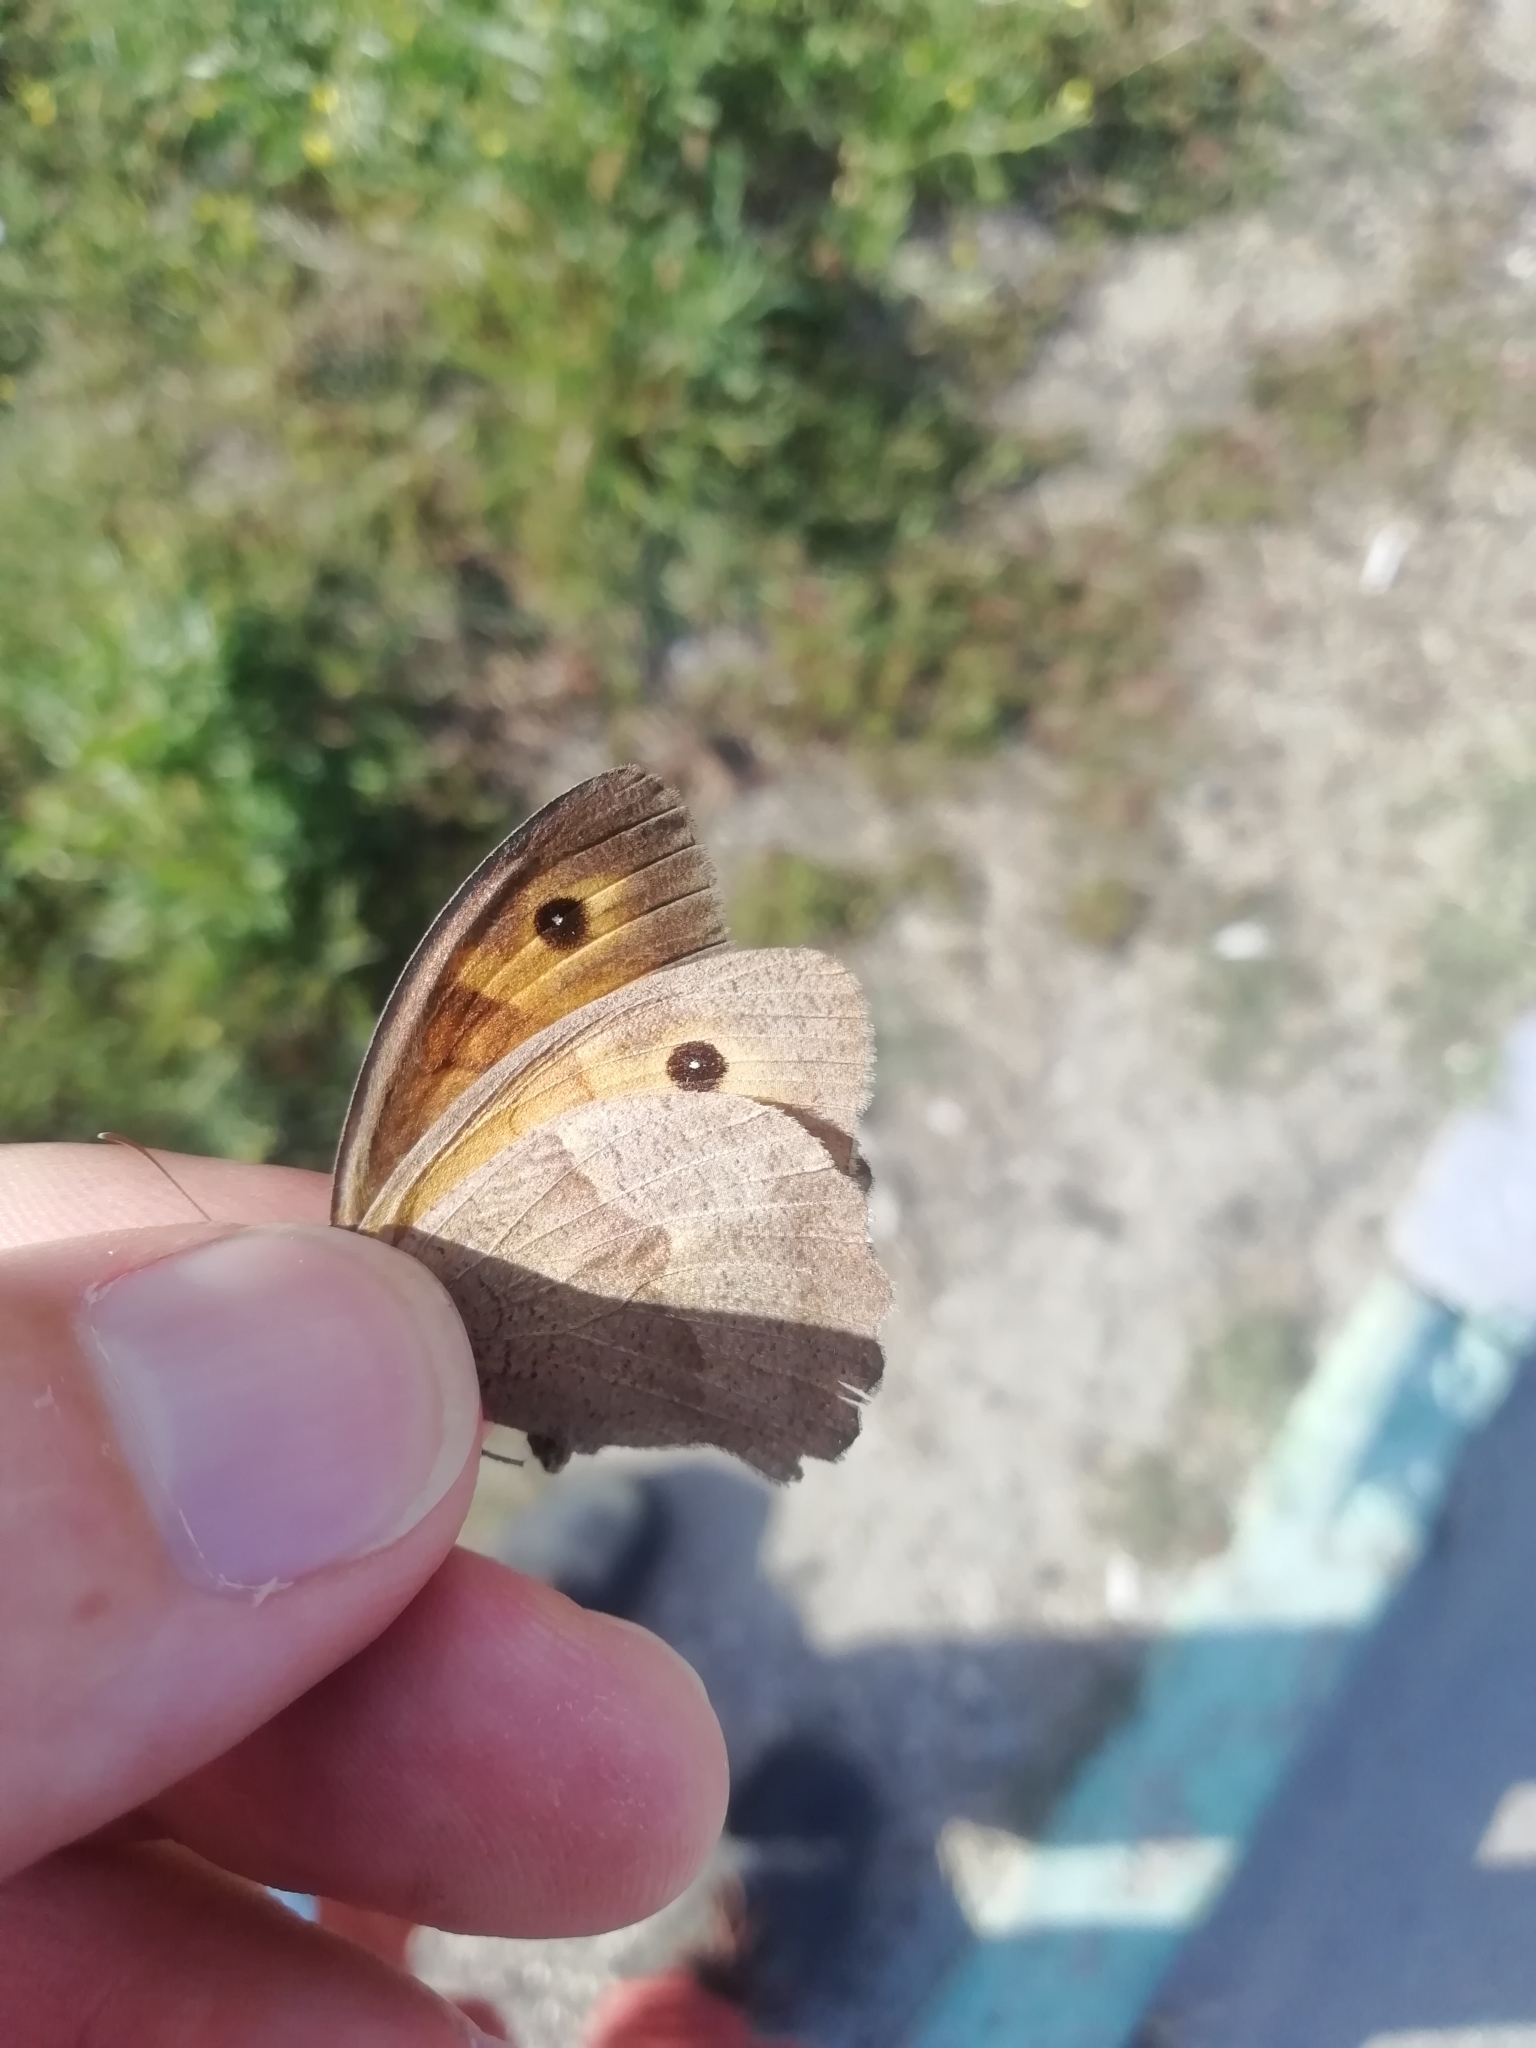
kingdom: Animalia
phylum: Arthropoda
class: Insecta
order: Lepidoptera
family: Nymphalidae
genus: Maniola
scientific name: Maniola jurtina
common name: Meadow brown
